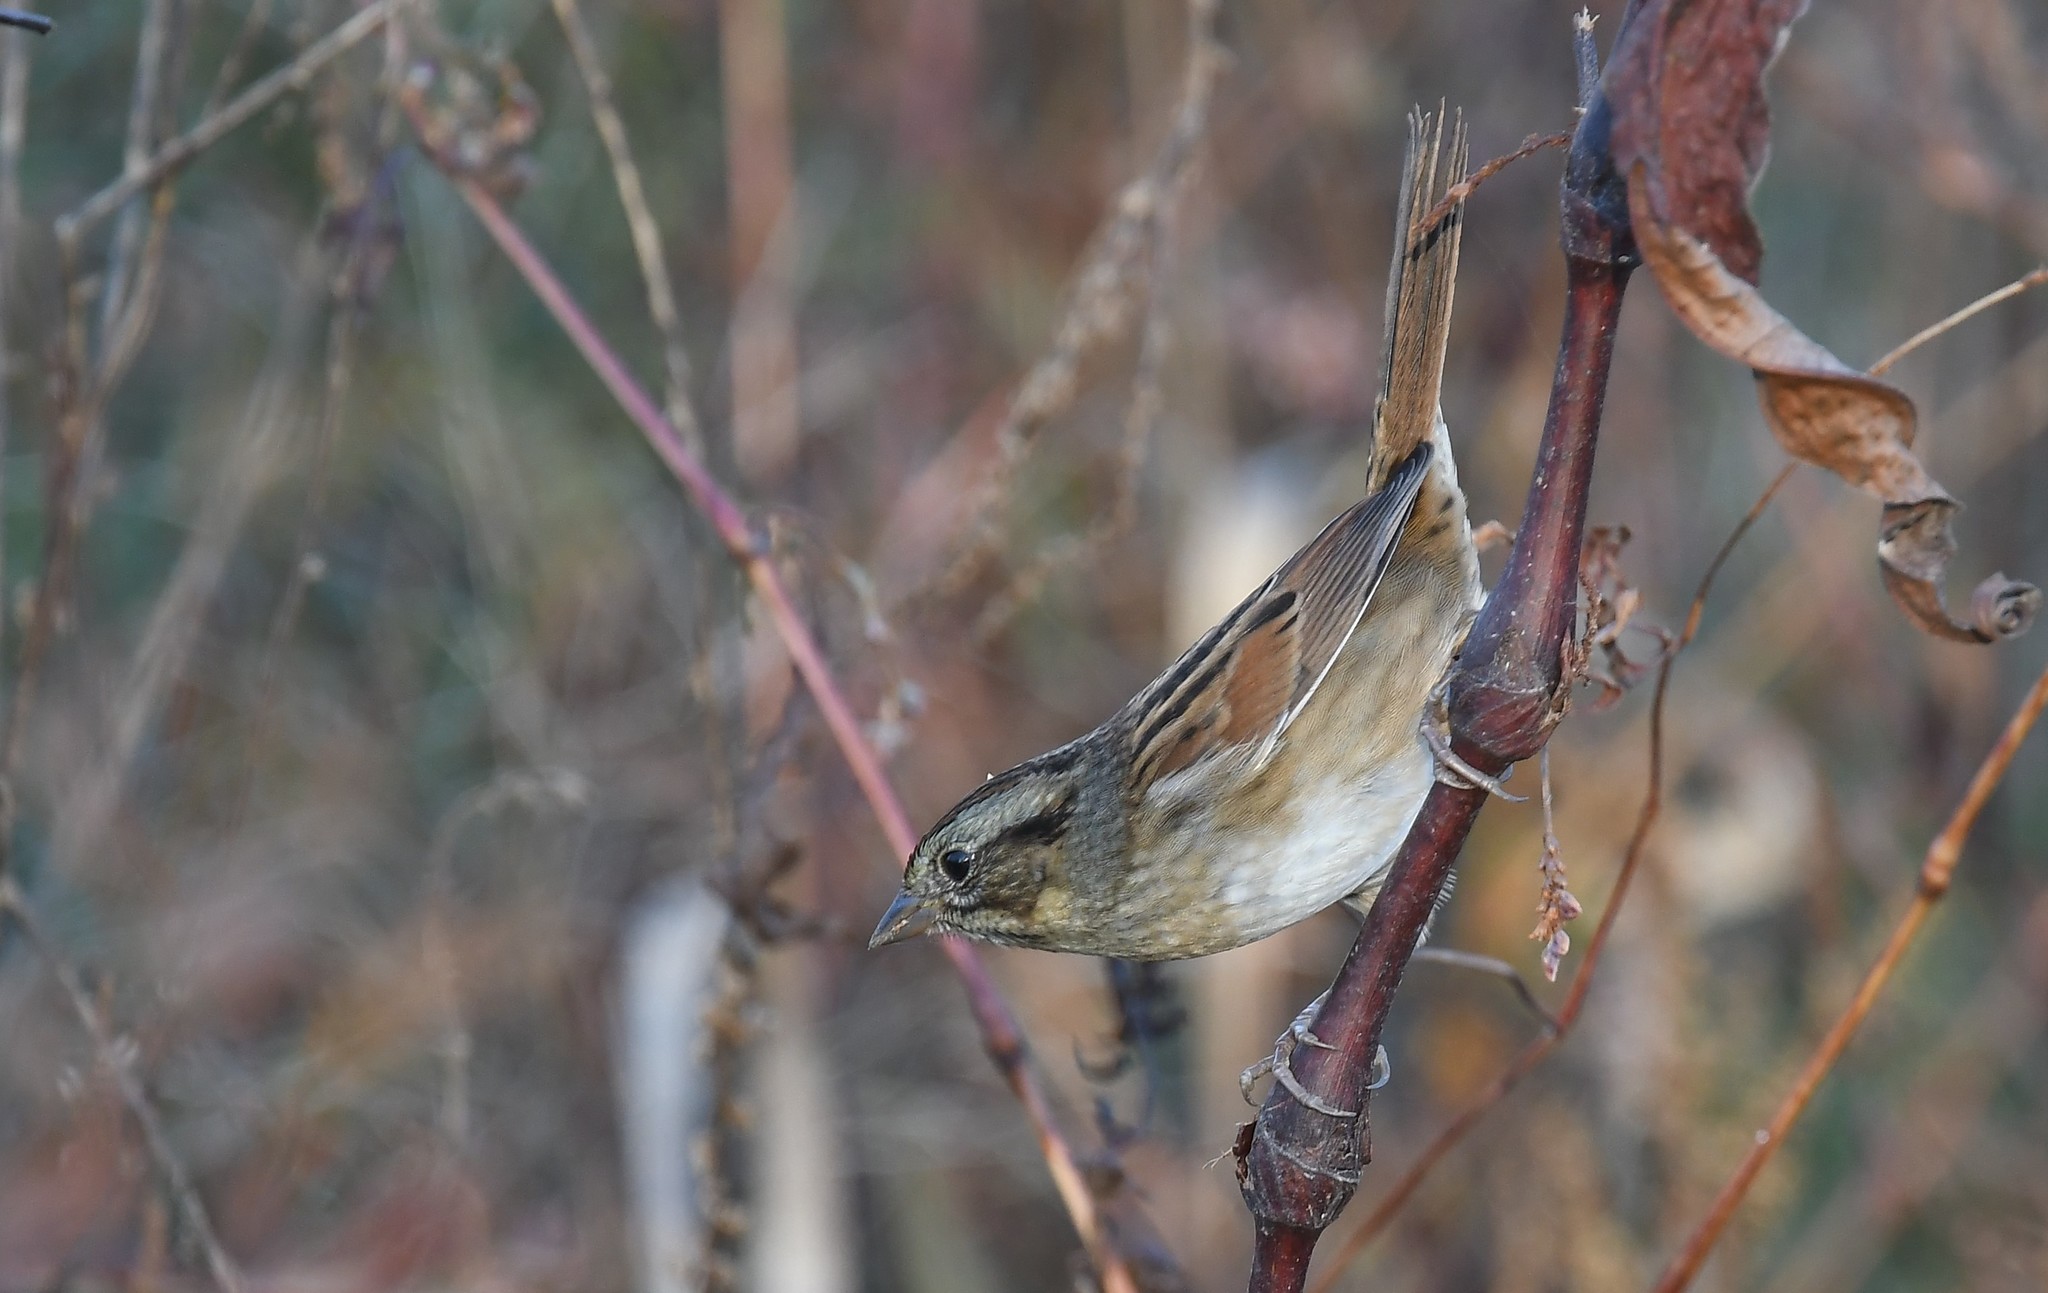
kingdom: Animalia
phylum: Chordata
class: Aves
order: Passeriformes
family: Passerellidae
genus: Melospiza
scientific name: Melospiza georgiana
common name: Swamp sparrow
